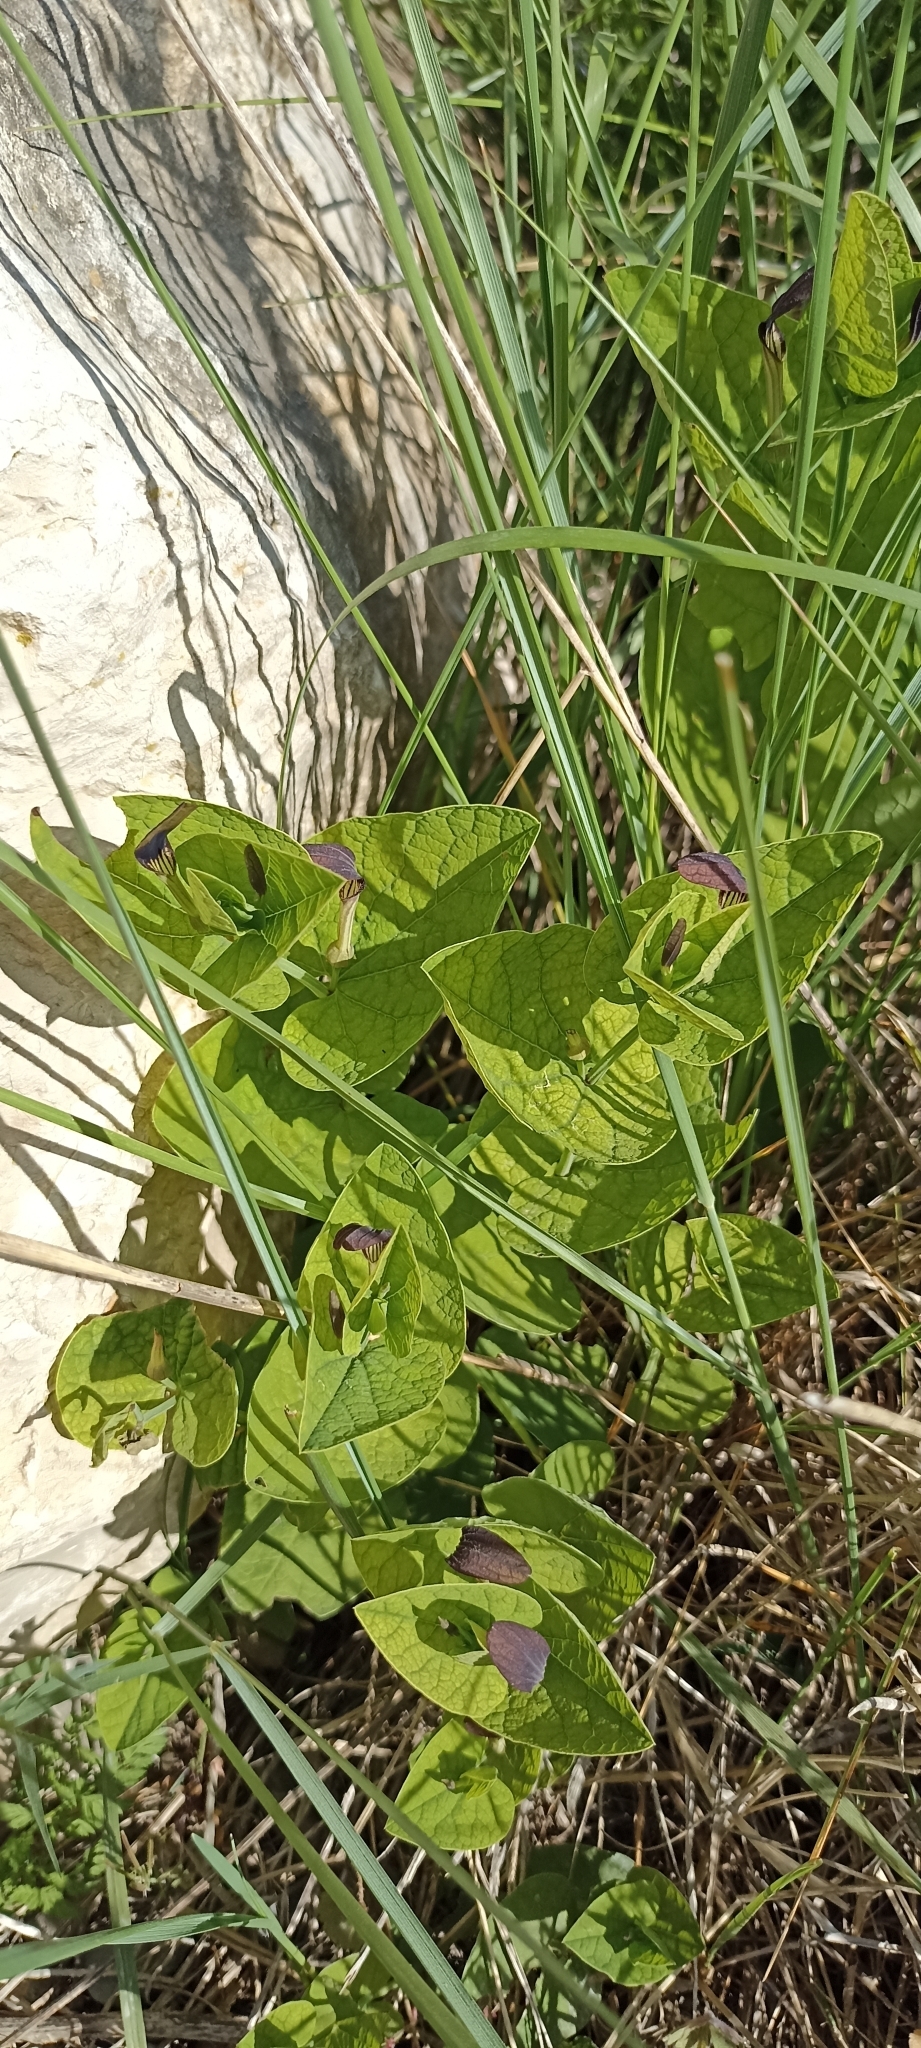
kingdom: Plantae
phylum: Tracheophyta
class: Magnoliopsida
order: Piperales
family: Aristolochiaceae
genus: Aristolochia
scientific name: Aristolochia rotunda
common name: Smearwort
